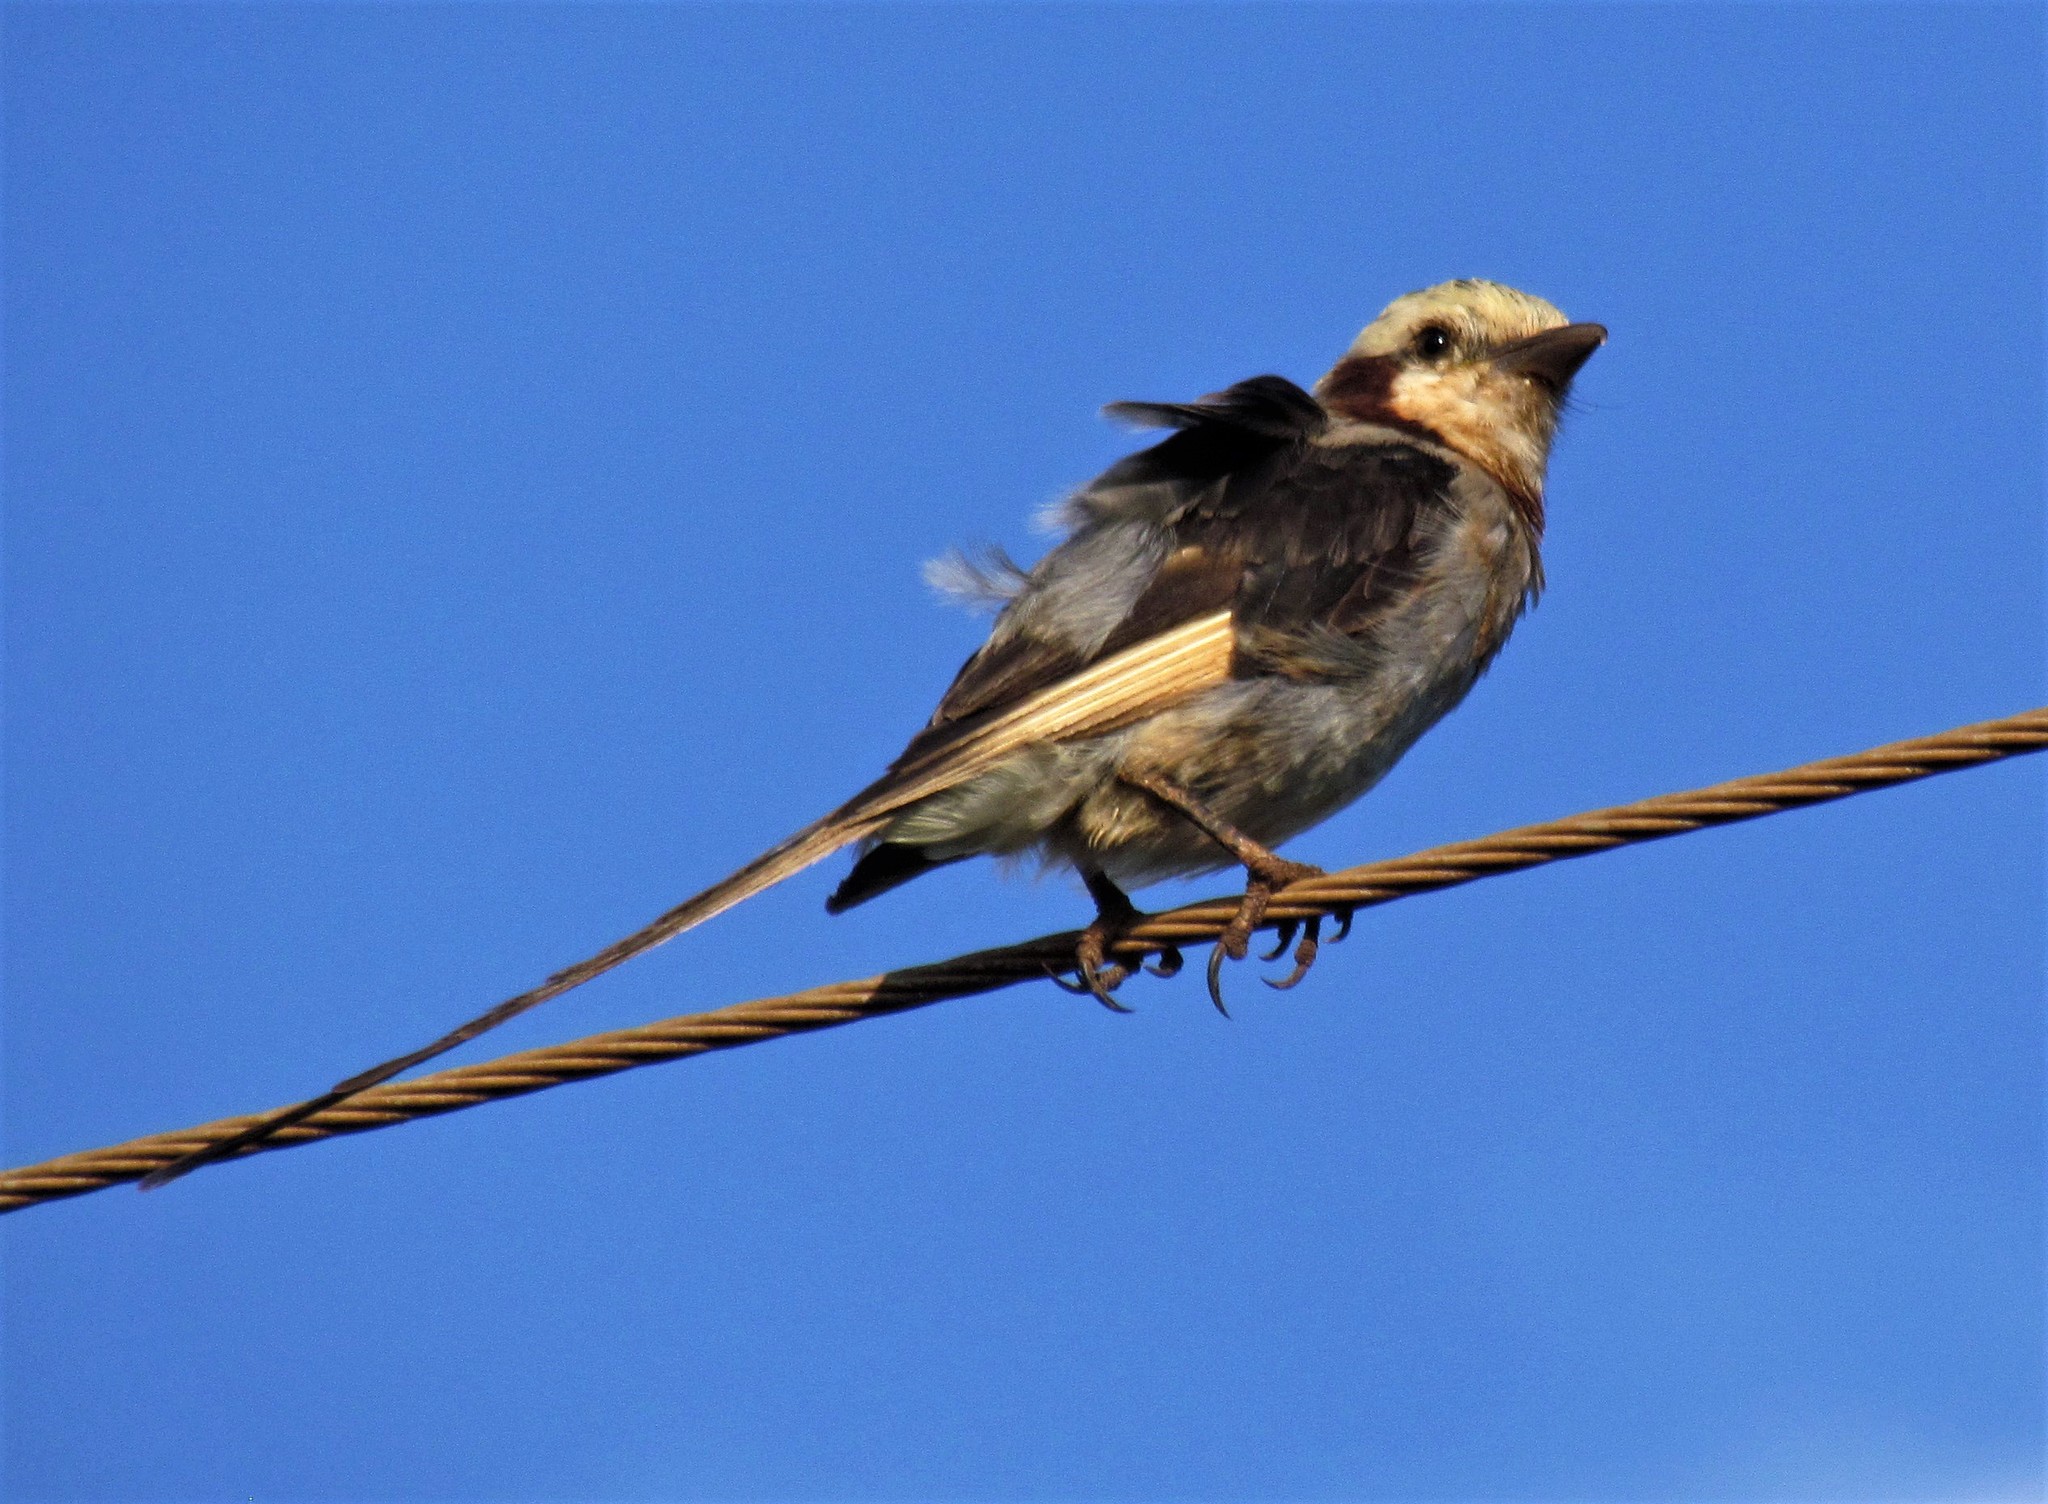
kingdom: Animalia
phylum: Chordata
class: Aves
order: Passeriformes
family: Tyrannidae
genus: Gubernetes
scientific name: Gubernetes yetapa
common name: Streamer-tailed tyrant
